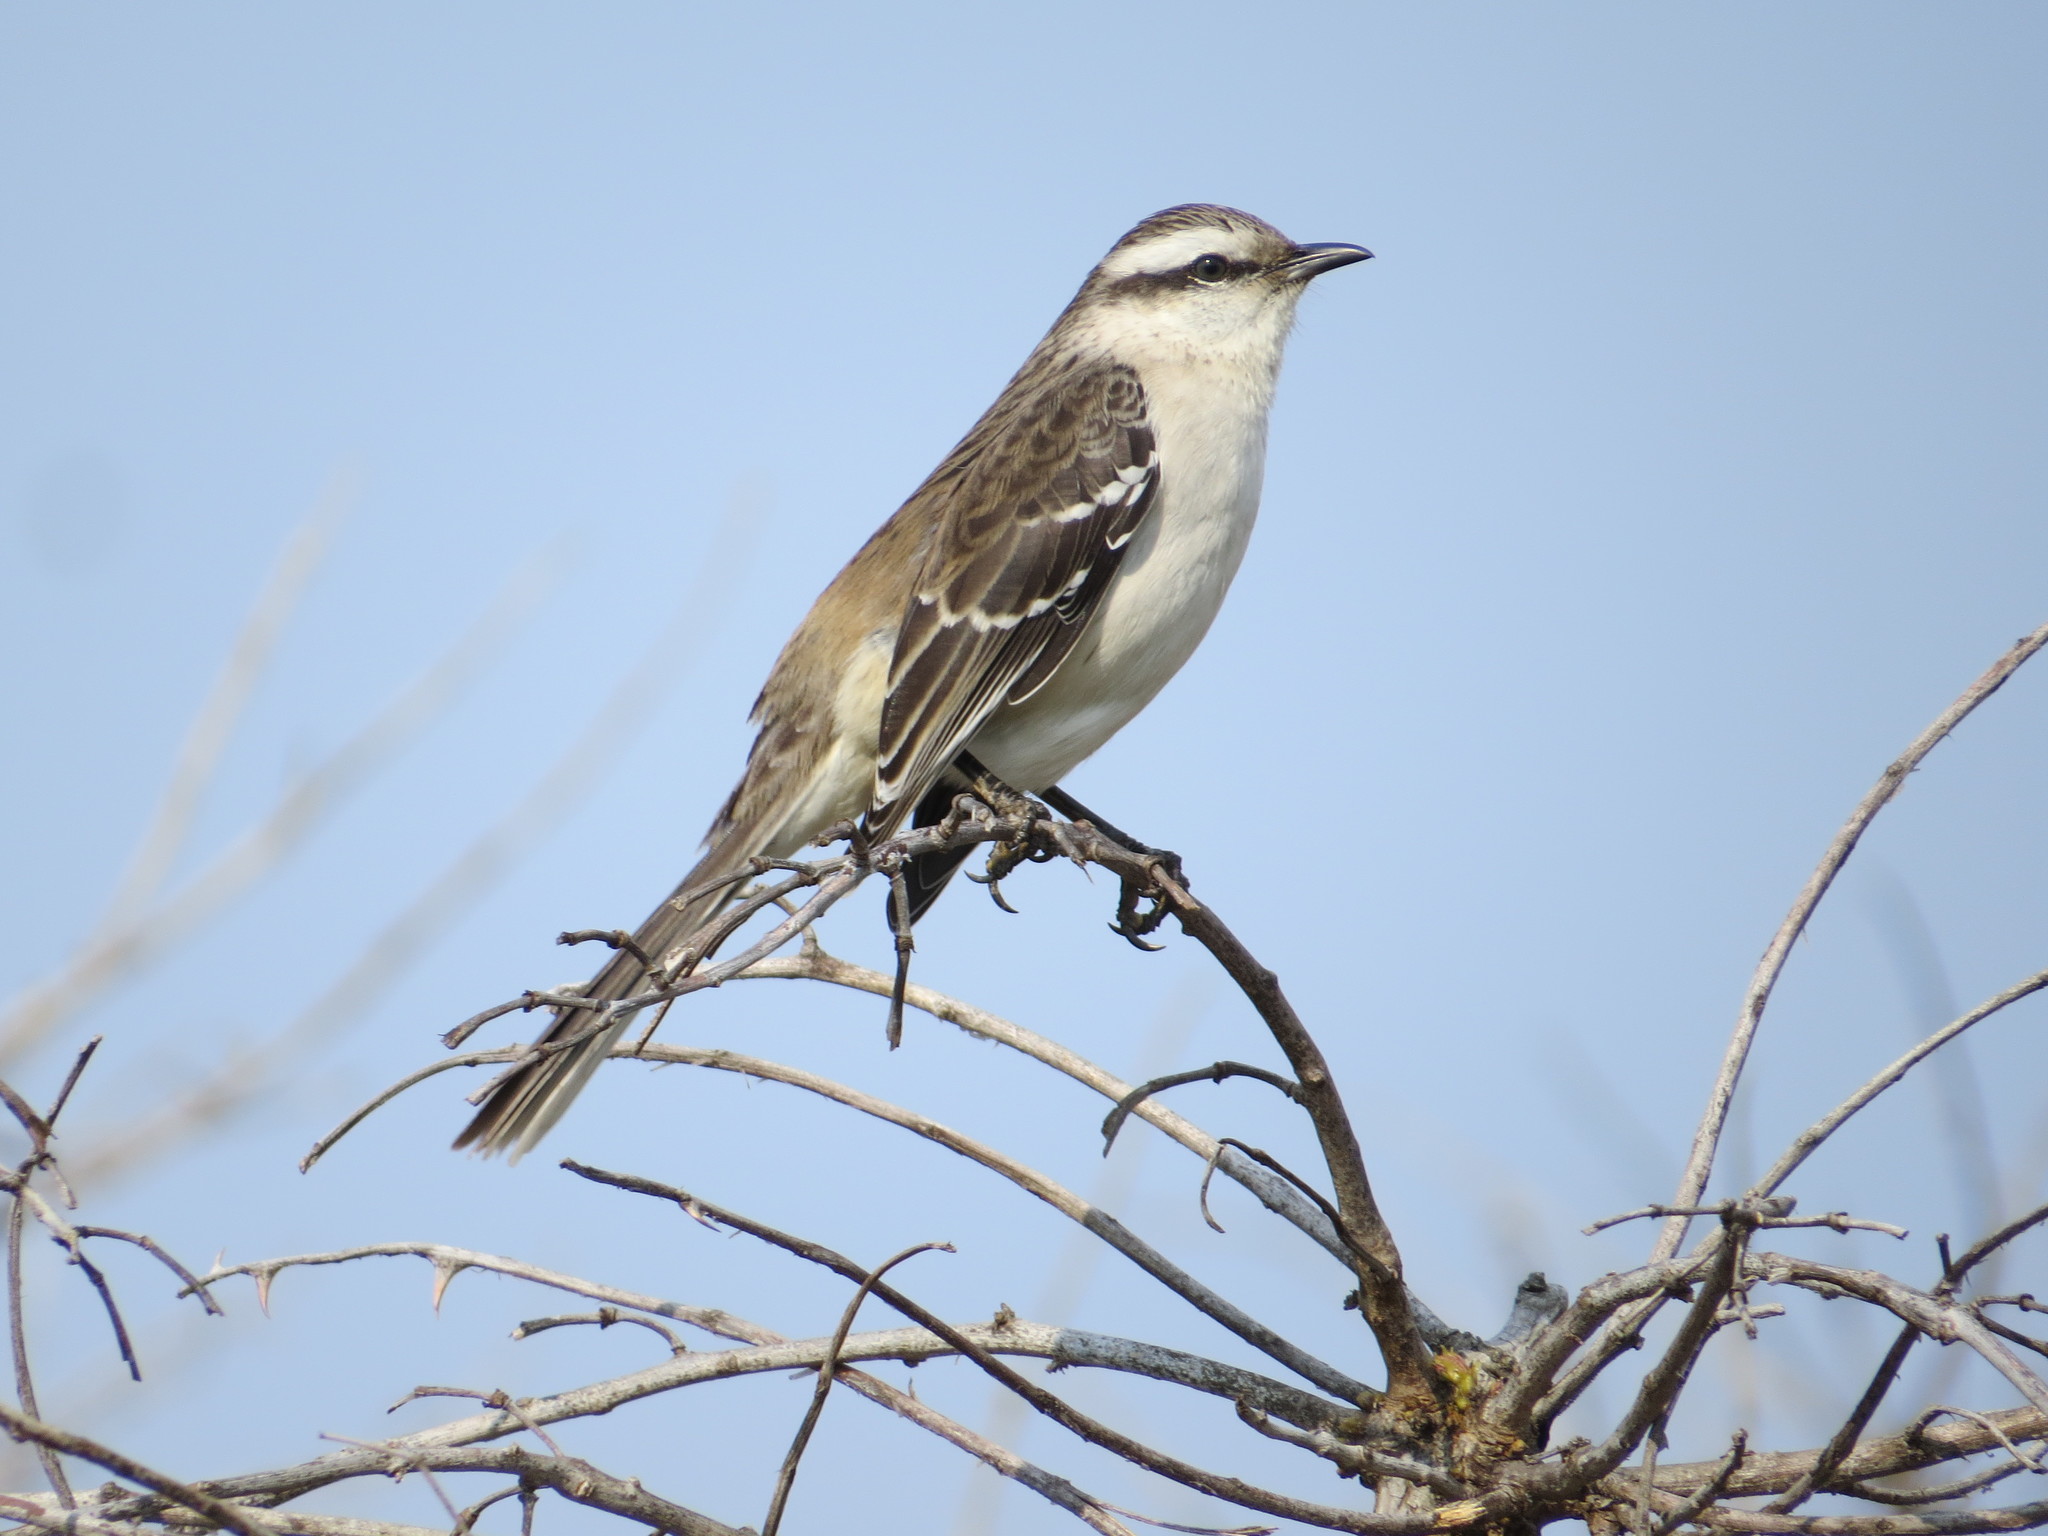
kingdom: Animalia
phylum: Chordata
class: Aves
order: Passeriformes
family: Mimidae
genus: Mimus
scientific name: Mimus saturninus
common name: Chalk-browed mockingbird
